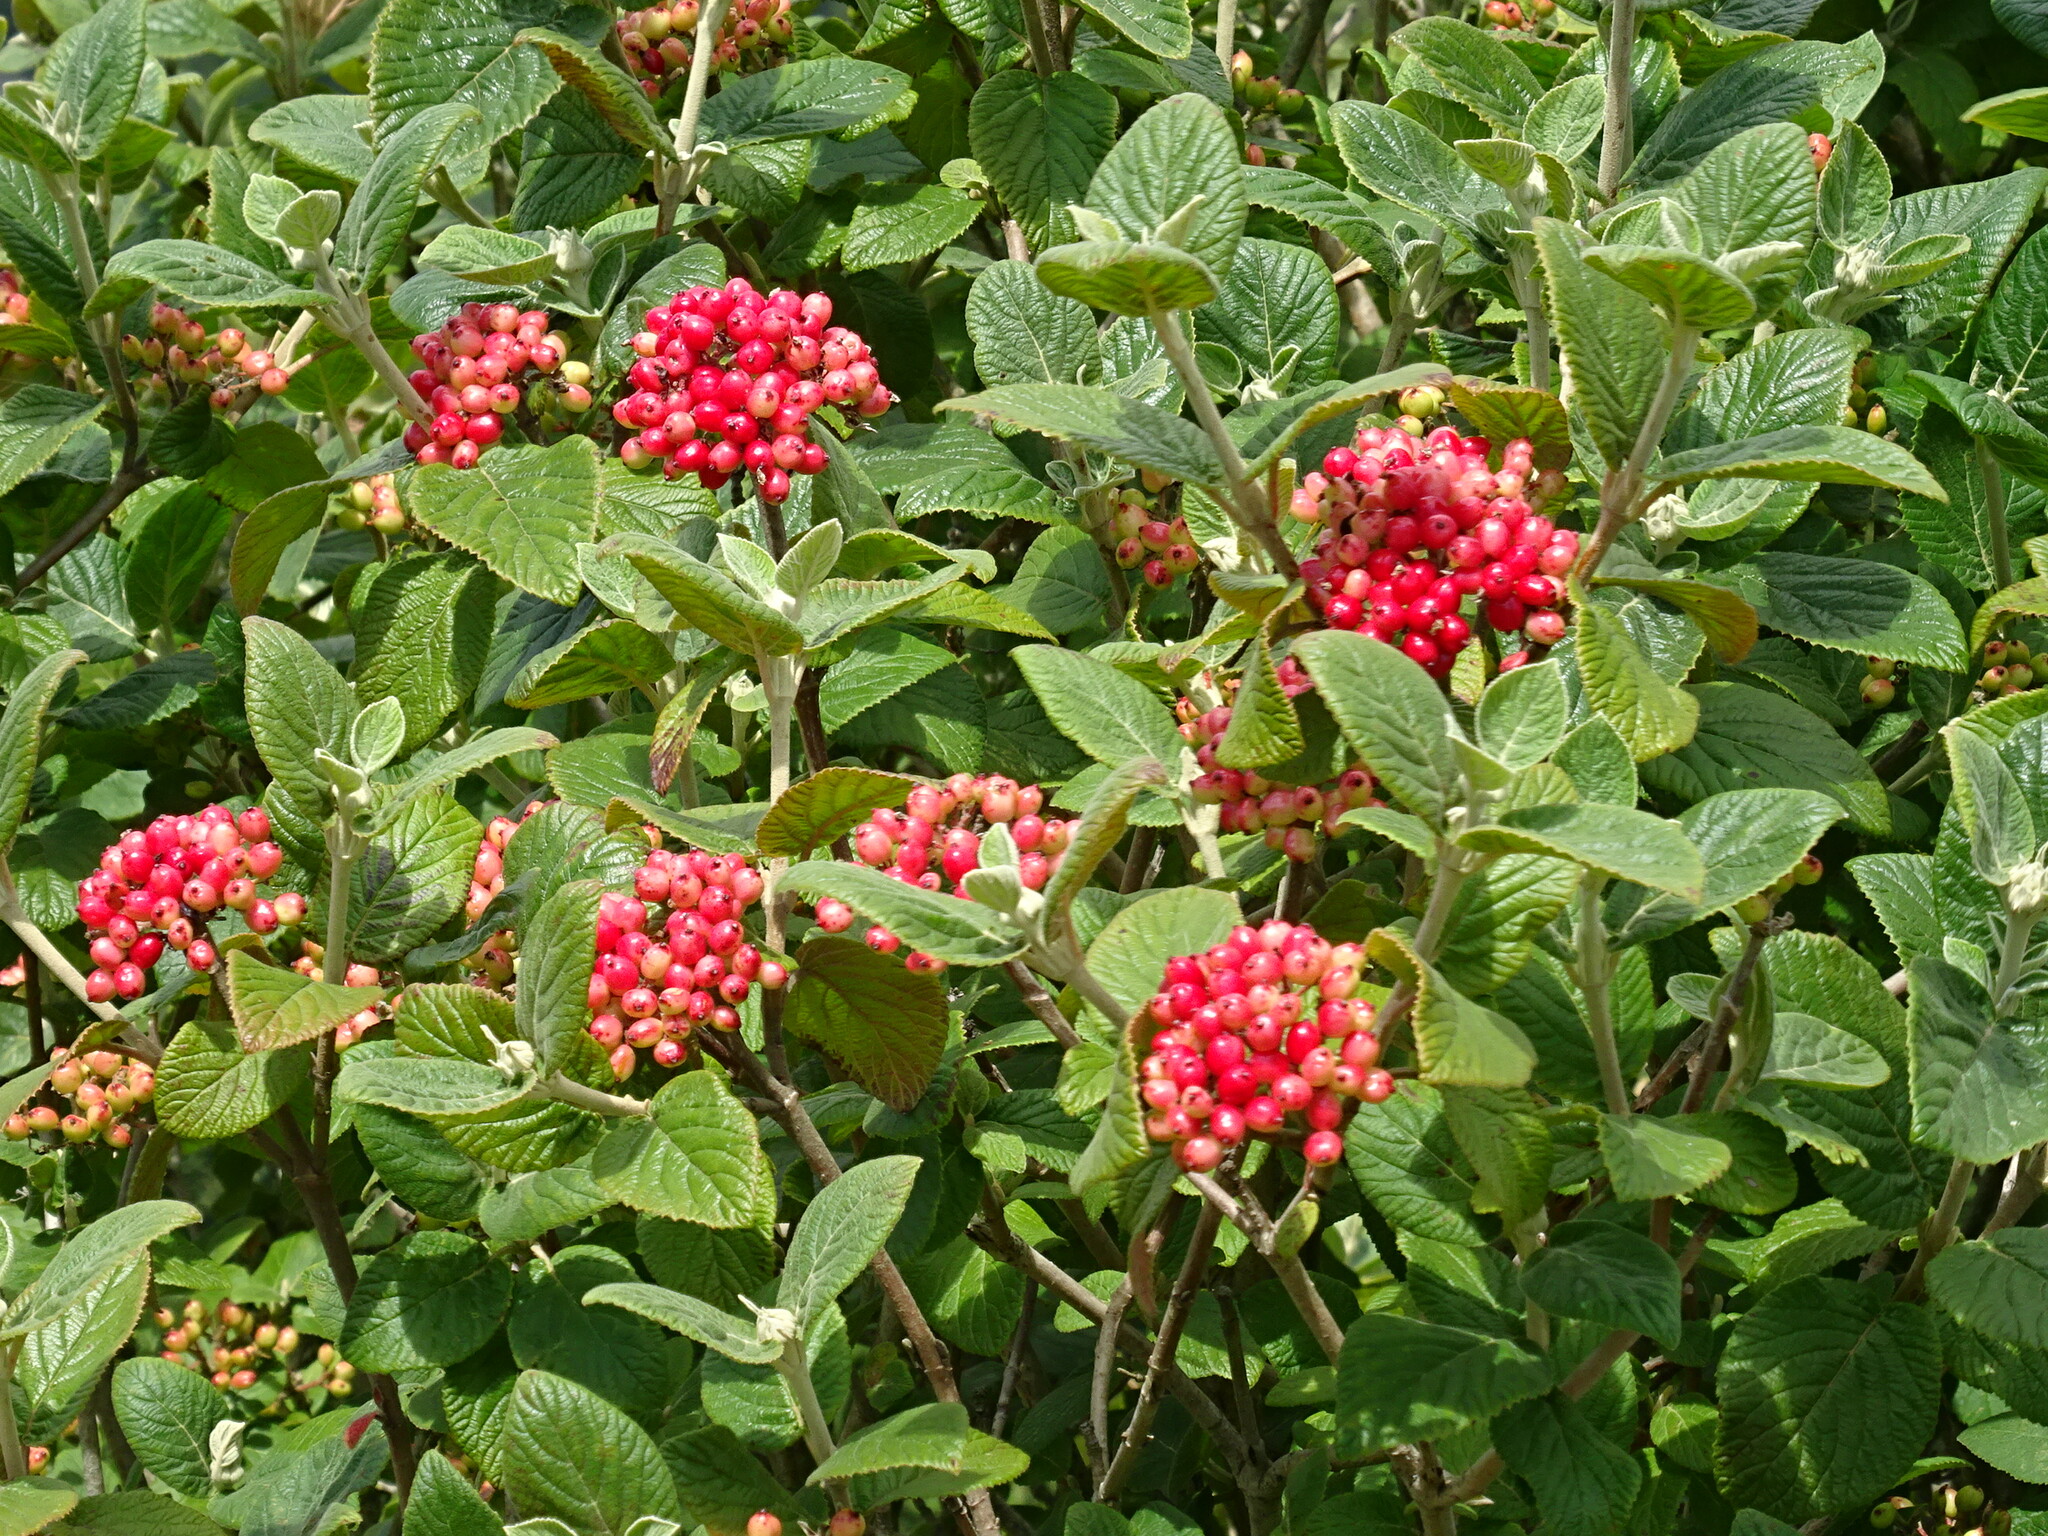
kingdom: Plantae
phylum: Tracheophyta
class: Magnoliopsida
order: Dipsacales
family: Viburnaceae
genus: Viburnum
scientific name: Viburnum lantana
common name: Wayfaring tree
